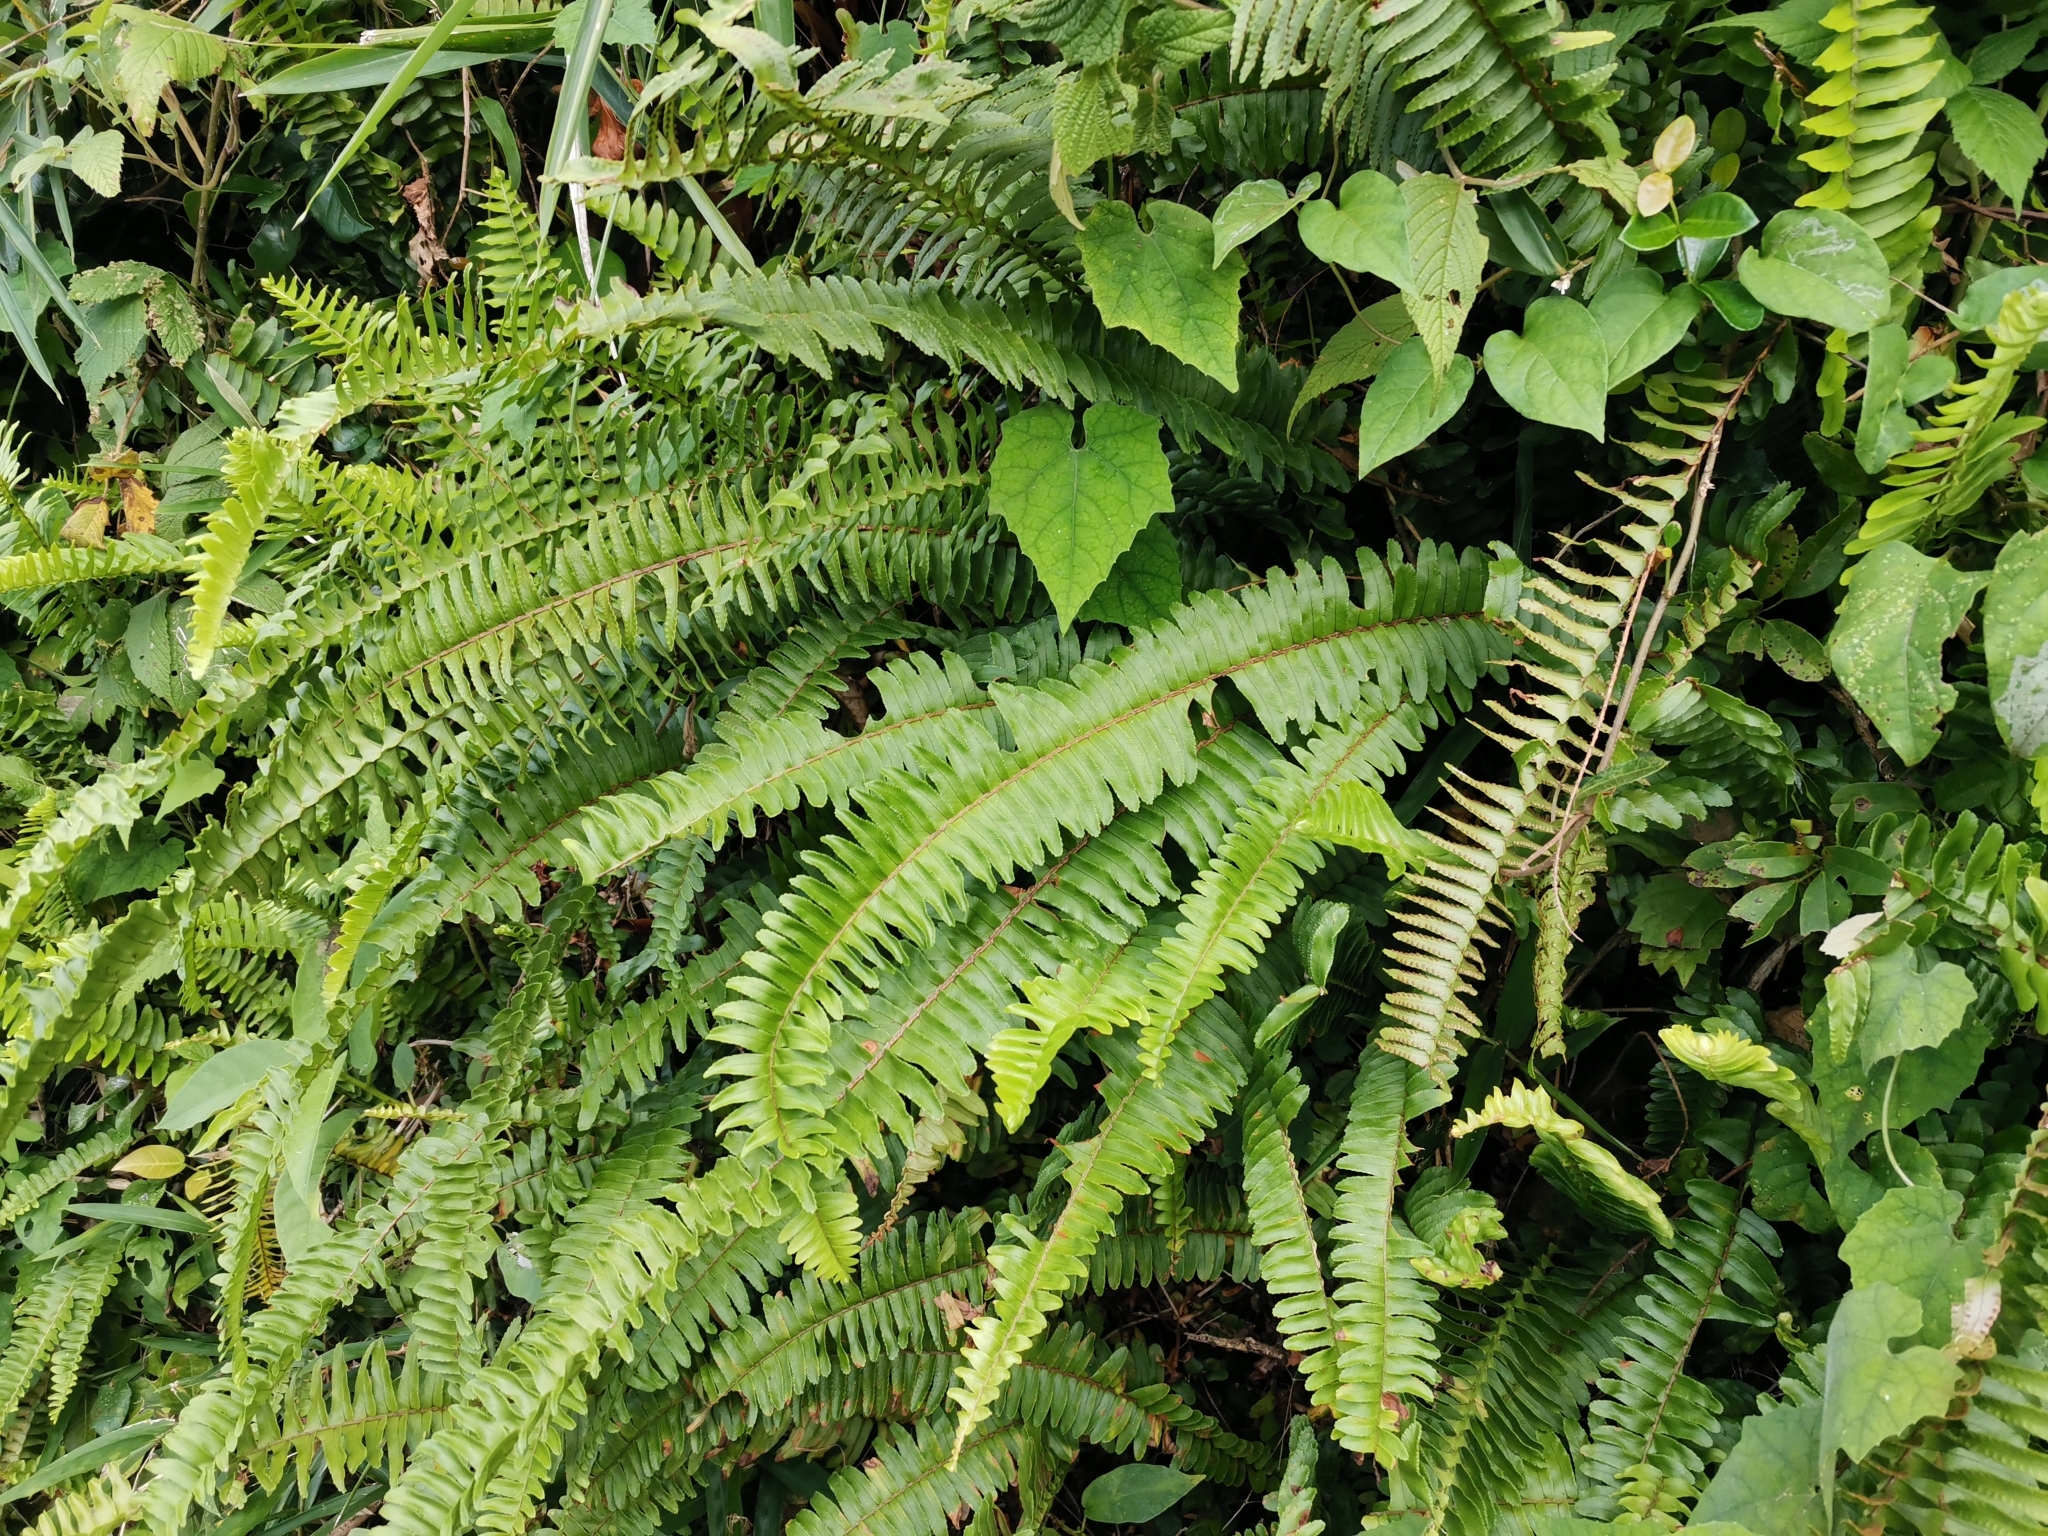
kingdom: Plantae
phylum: Tracheophyta
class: Polypodiopsida
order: Polypodiales
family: Nephrolepidaceae
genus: Nephrolepis
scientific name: Nephrolepis cordifolia
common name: Narrow swordfern
